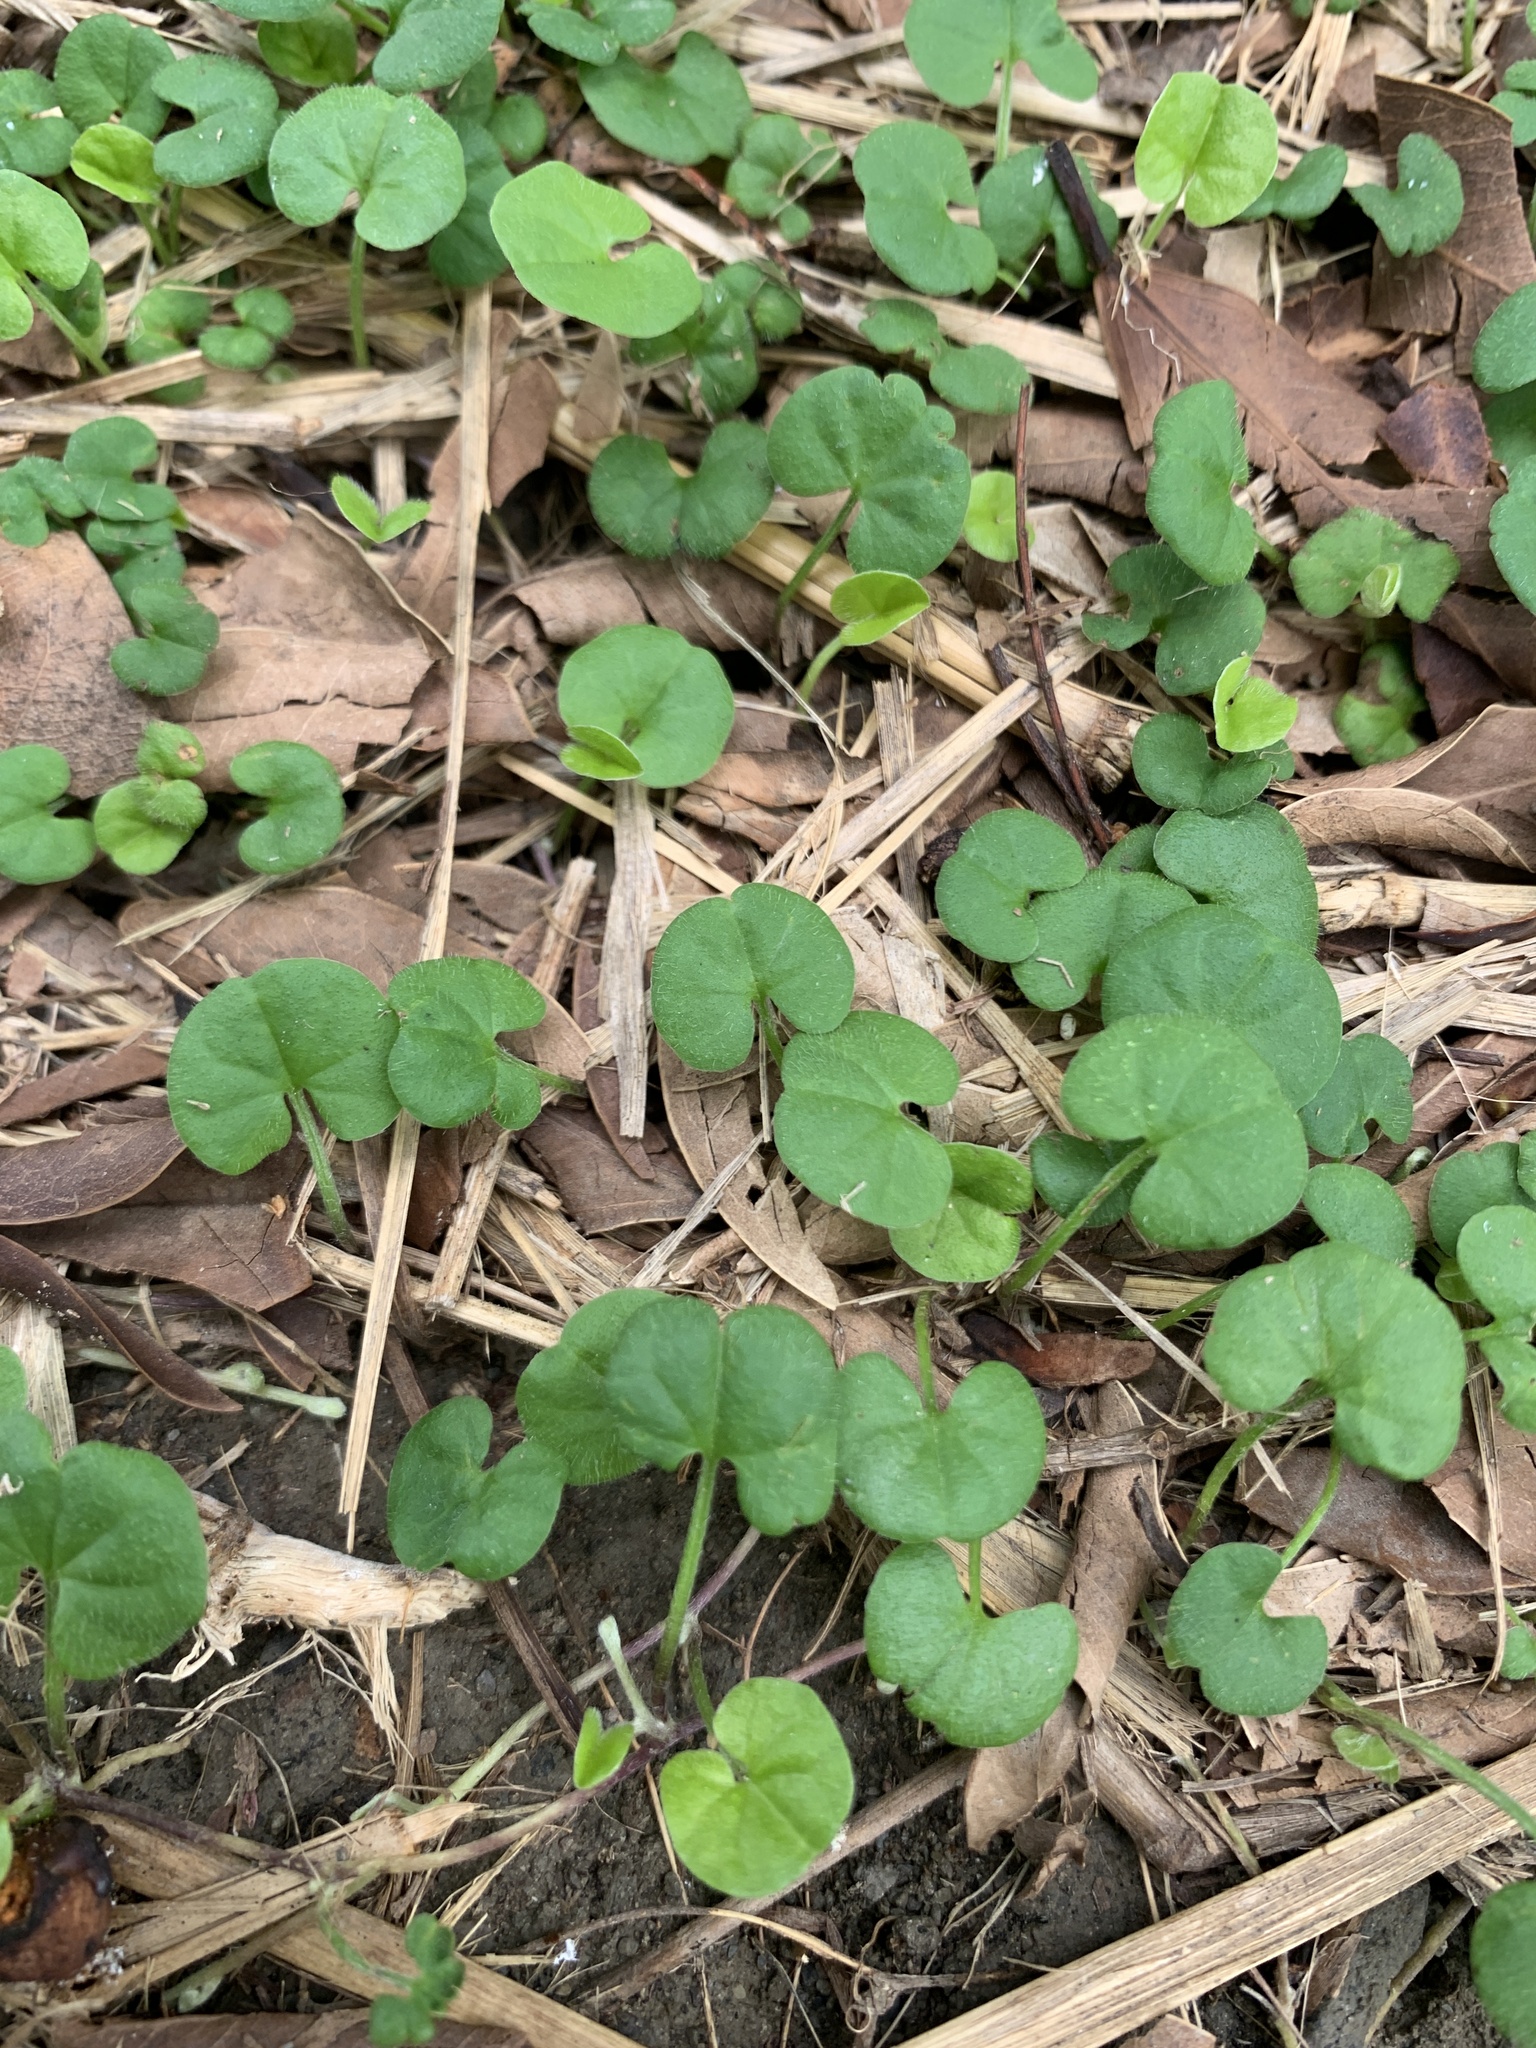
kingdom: Plantae
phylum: Tracheophyta
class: Magnoliopsida
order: Solanales
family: Convolvulaceae
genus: Dichondra
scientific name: Dichondra micrantha
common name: Kidneyweed
